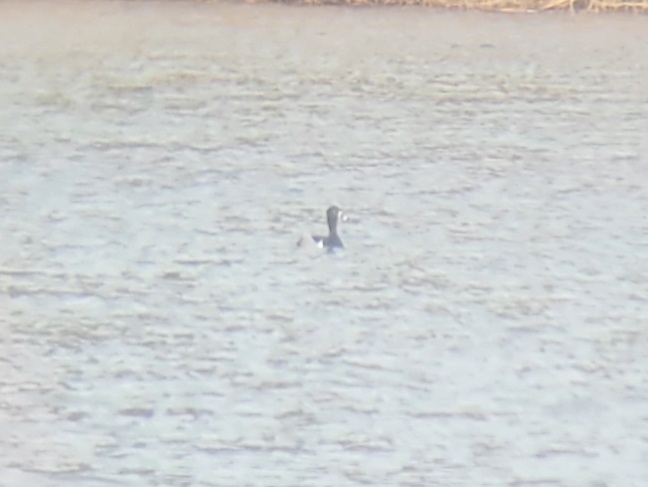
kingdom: Animalia
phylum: Chordata
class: Aves
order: Anseriformes
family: Anatidae
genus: Aythya
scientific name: Aythya collaris
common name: Ring-necked duck
